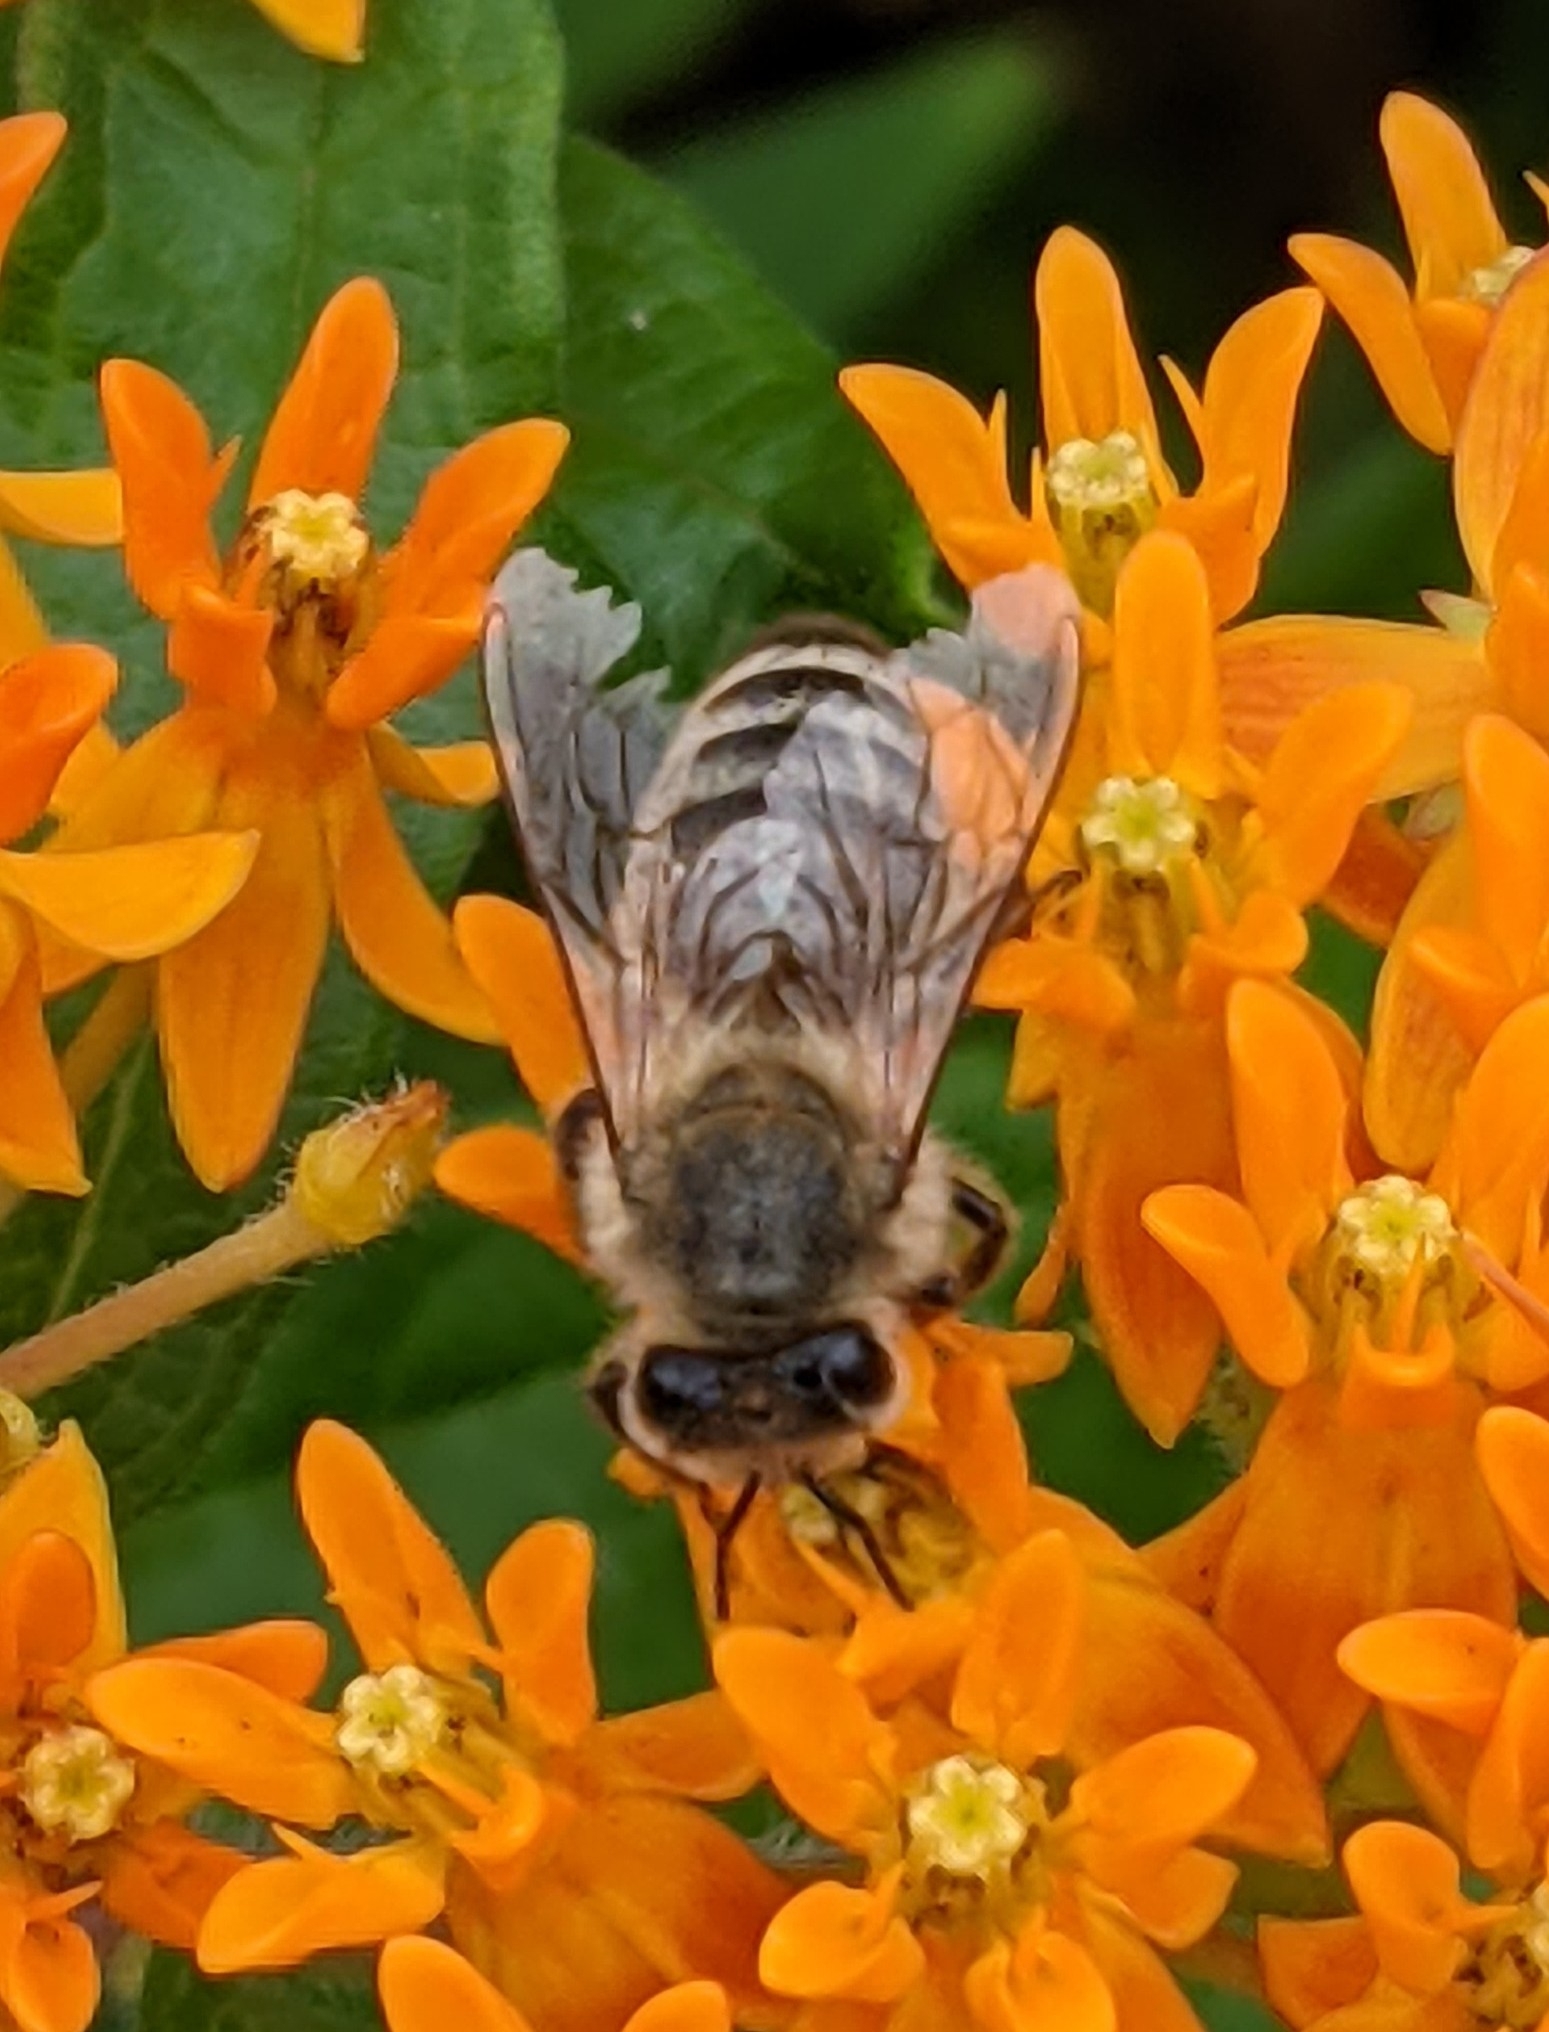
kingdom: Animalia
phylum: Arthropoda
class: Insecta
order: Hymenoptera
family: Apidae
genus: Apis
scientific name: Apis mellifera
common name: Honey bee
